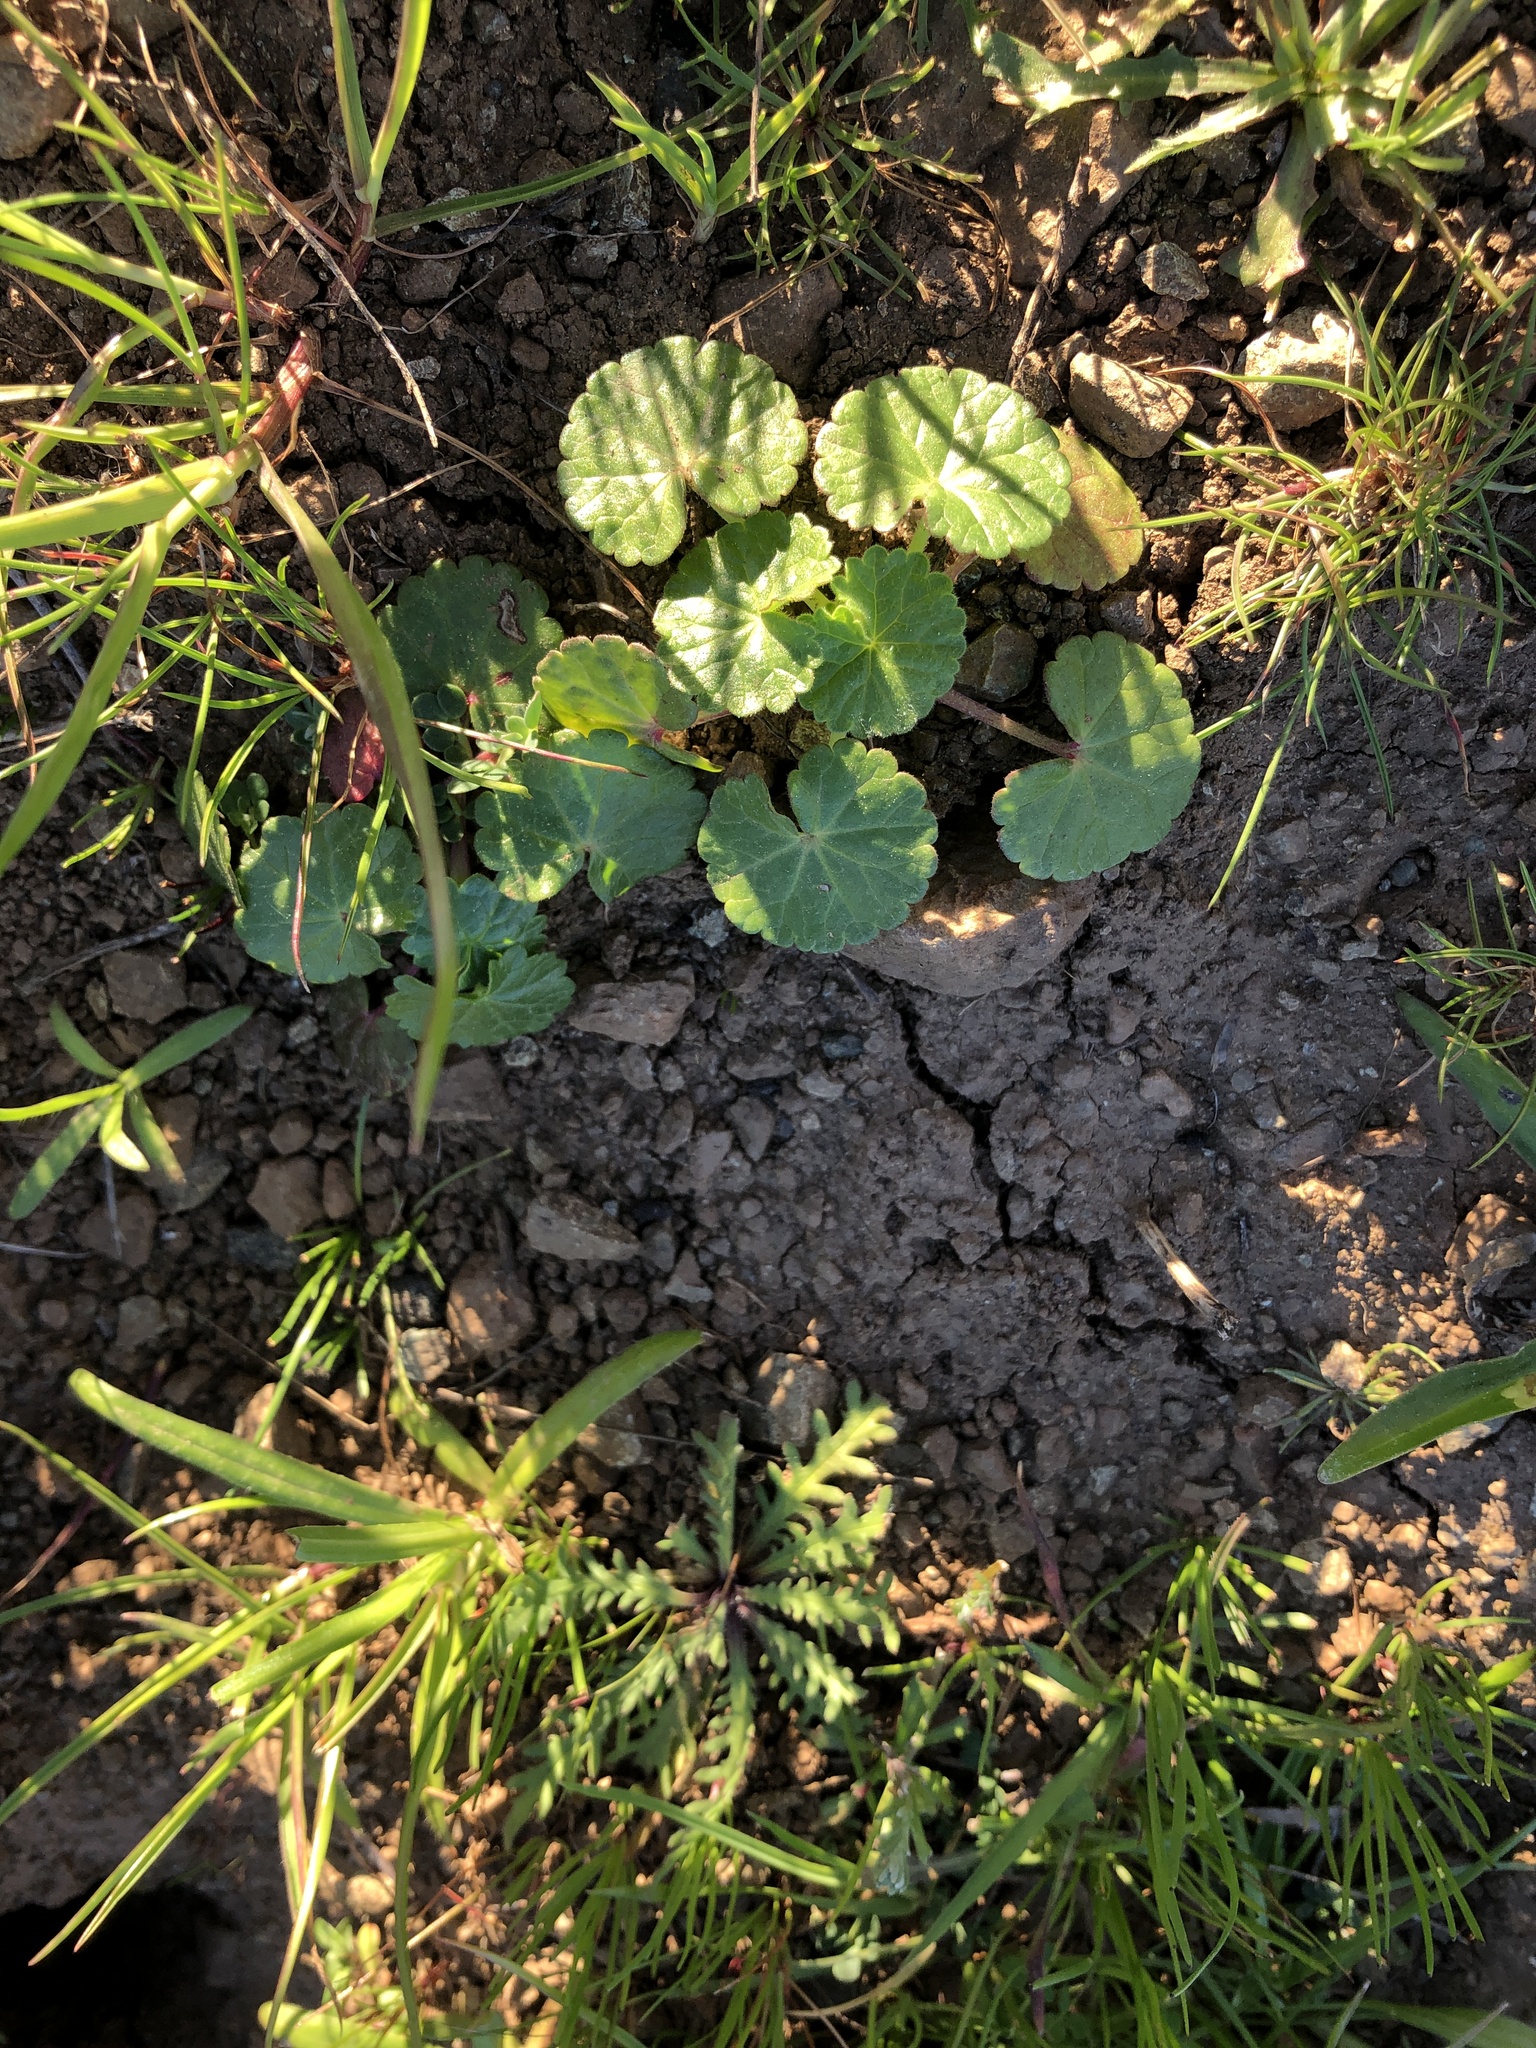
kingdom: Plantae
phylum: Tracheophyta
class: Magnoliopsida
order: Malvales
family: Malvaceae
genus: Sidalcea
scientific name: Sidalcea malviflora
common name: Greek mallow
